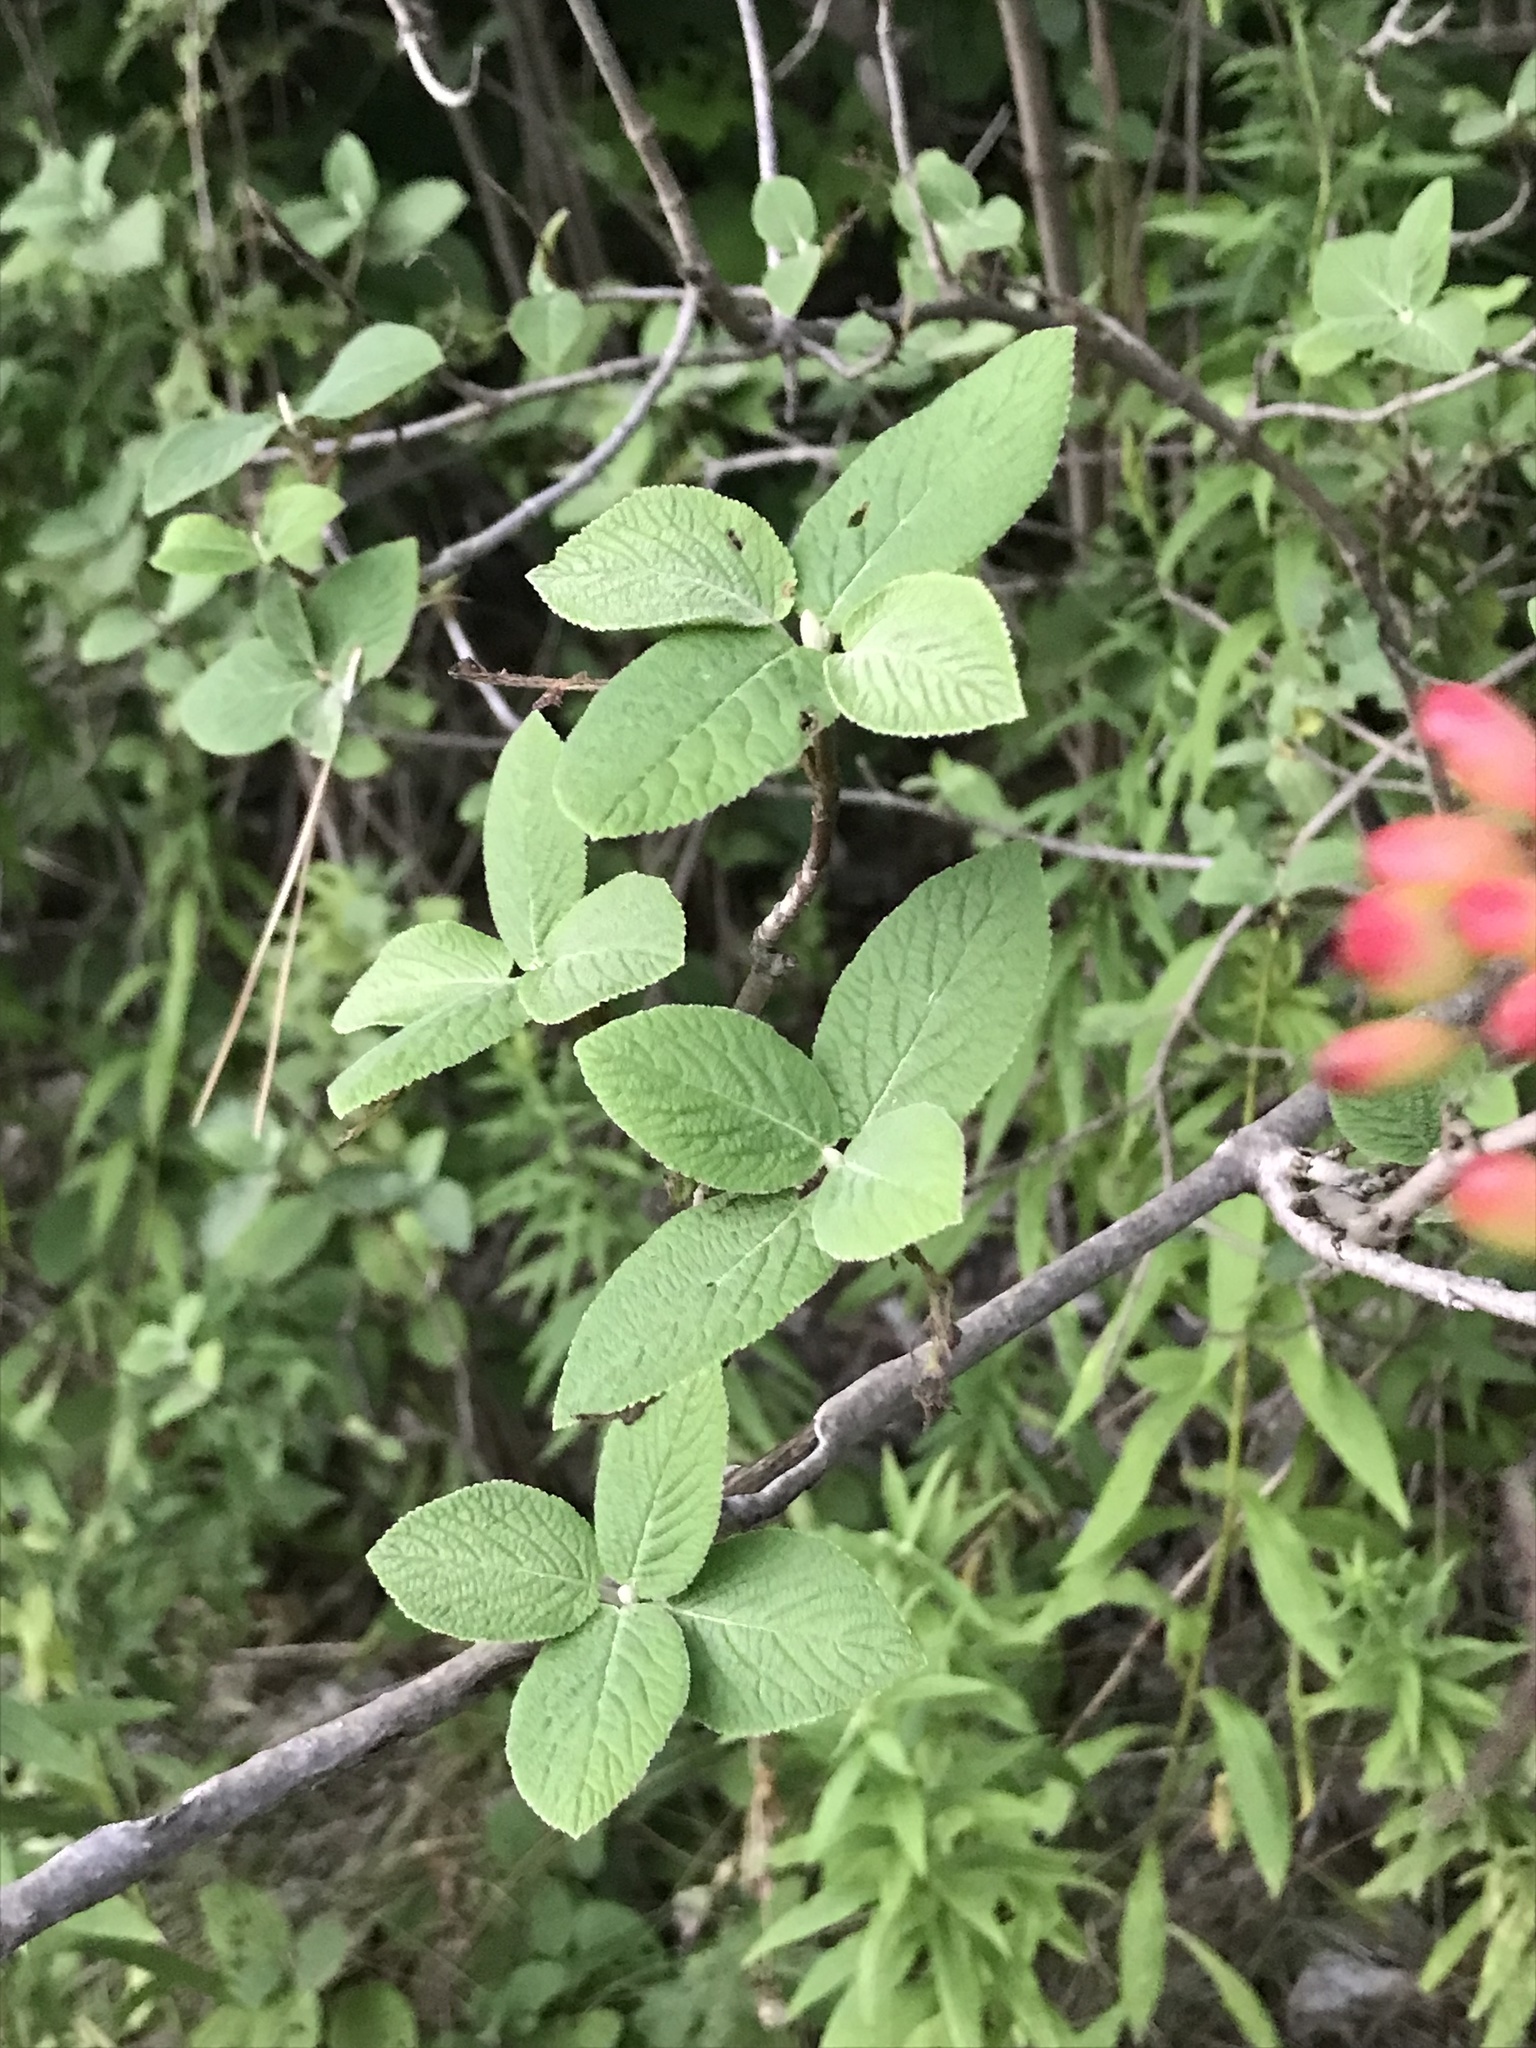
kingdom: Plantae
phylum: Tracheophyta
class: Magnoliopsida
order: Dipsacales
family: Viburnaceae
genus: Viburnum
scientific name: Viburnum lantana
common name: Wayfaring tree
